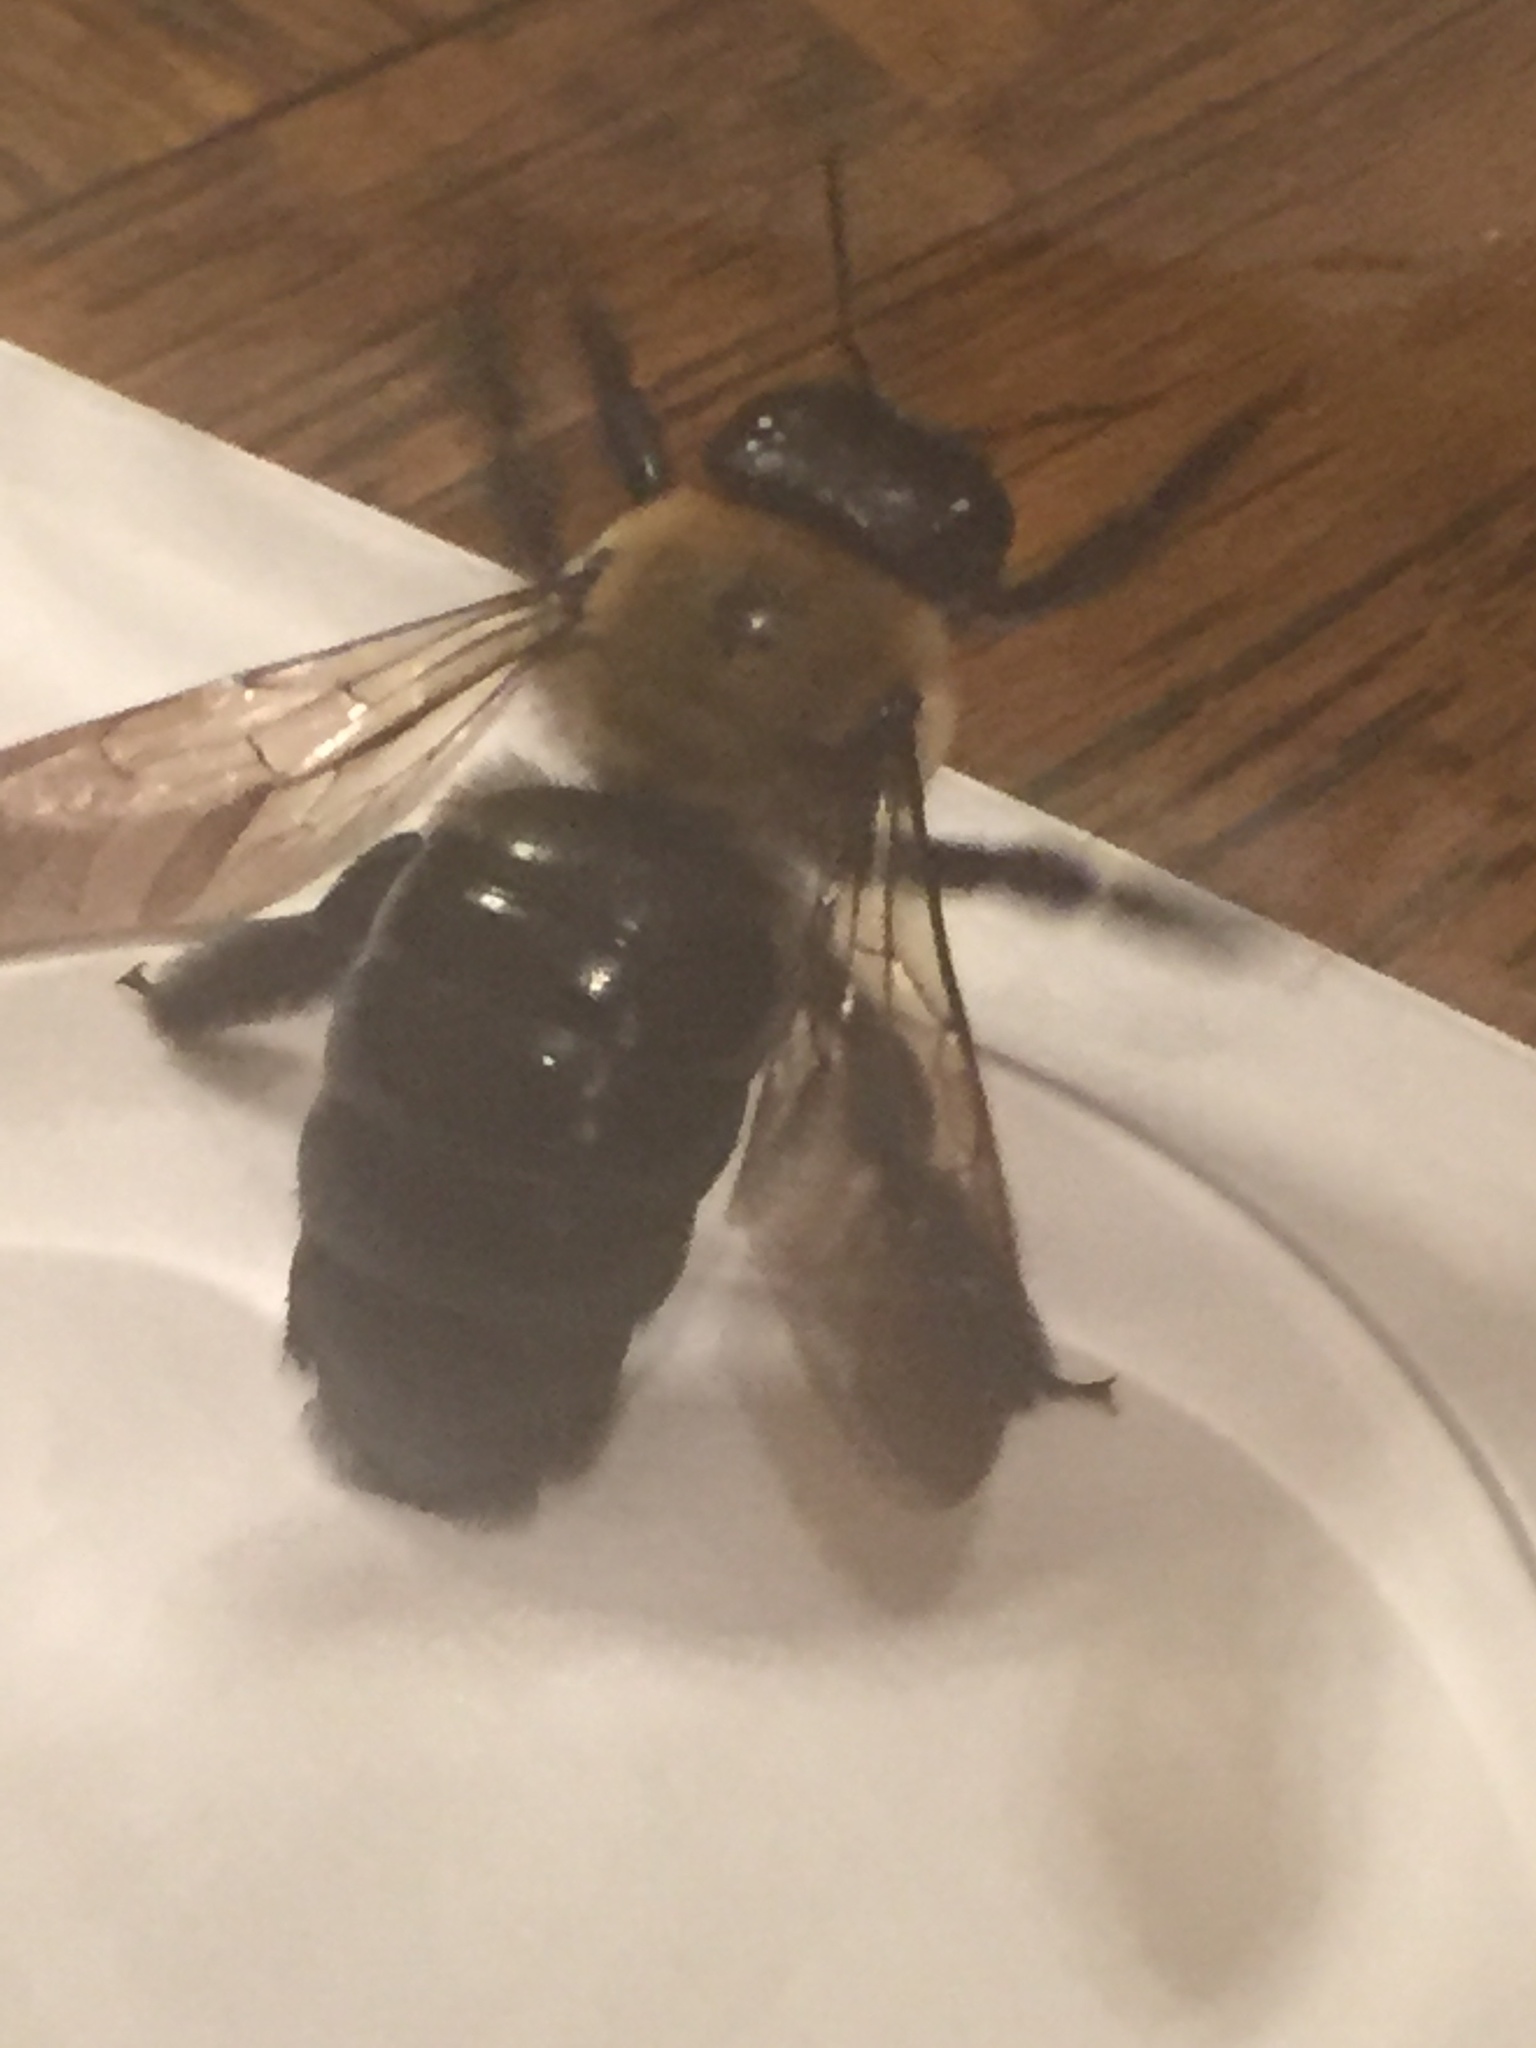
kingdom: Animalia
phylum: Arthropoda
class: Insecta
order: Hymenoptera
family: Apidae
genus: Xylocopa
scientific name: Xylocopa virginica
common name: Carpenter bee
